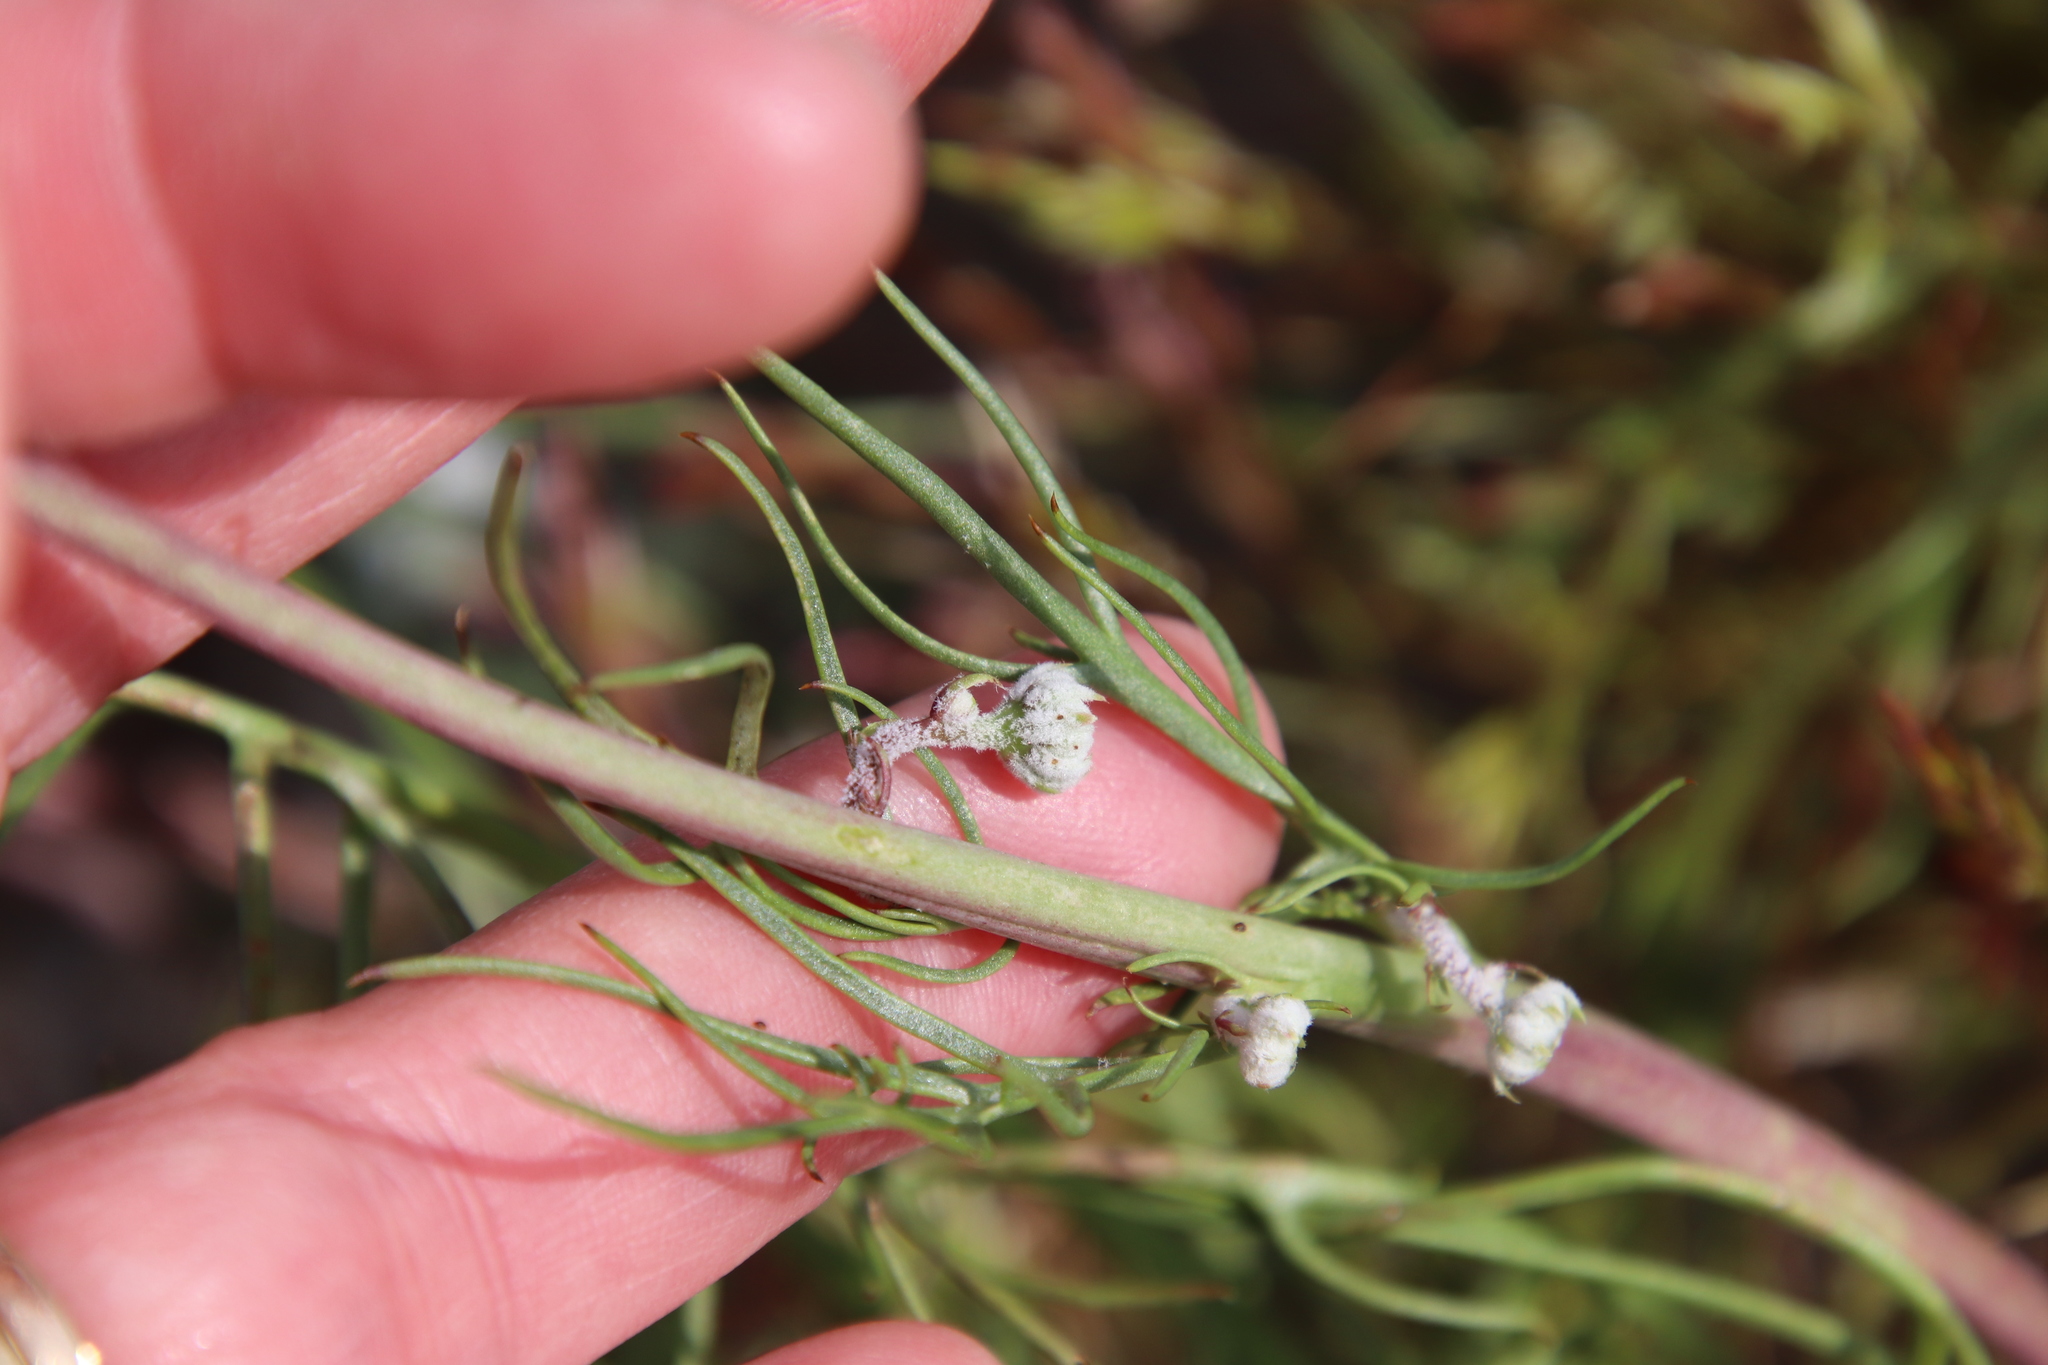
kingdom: Plantae
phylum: Tracheophyta
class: Magnoliopsida
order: Asterales
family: Asteraceae
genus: Malacothrix
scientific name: Malacothrix glabrata
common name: Smooth desert-dandelion
